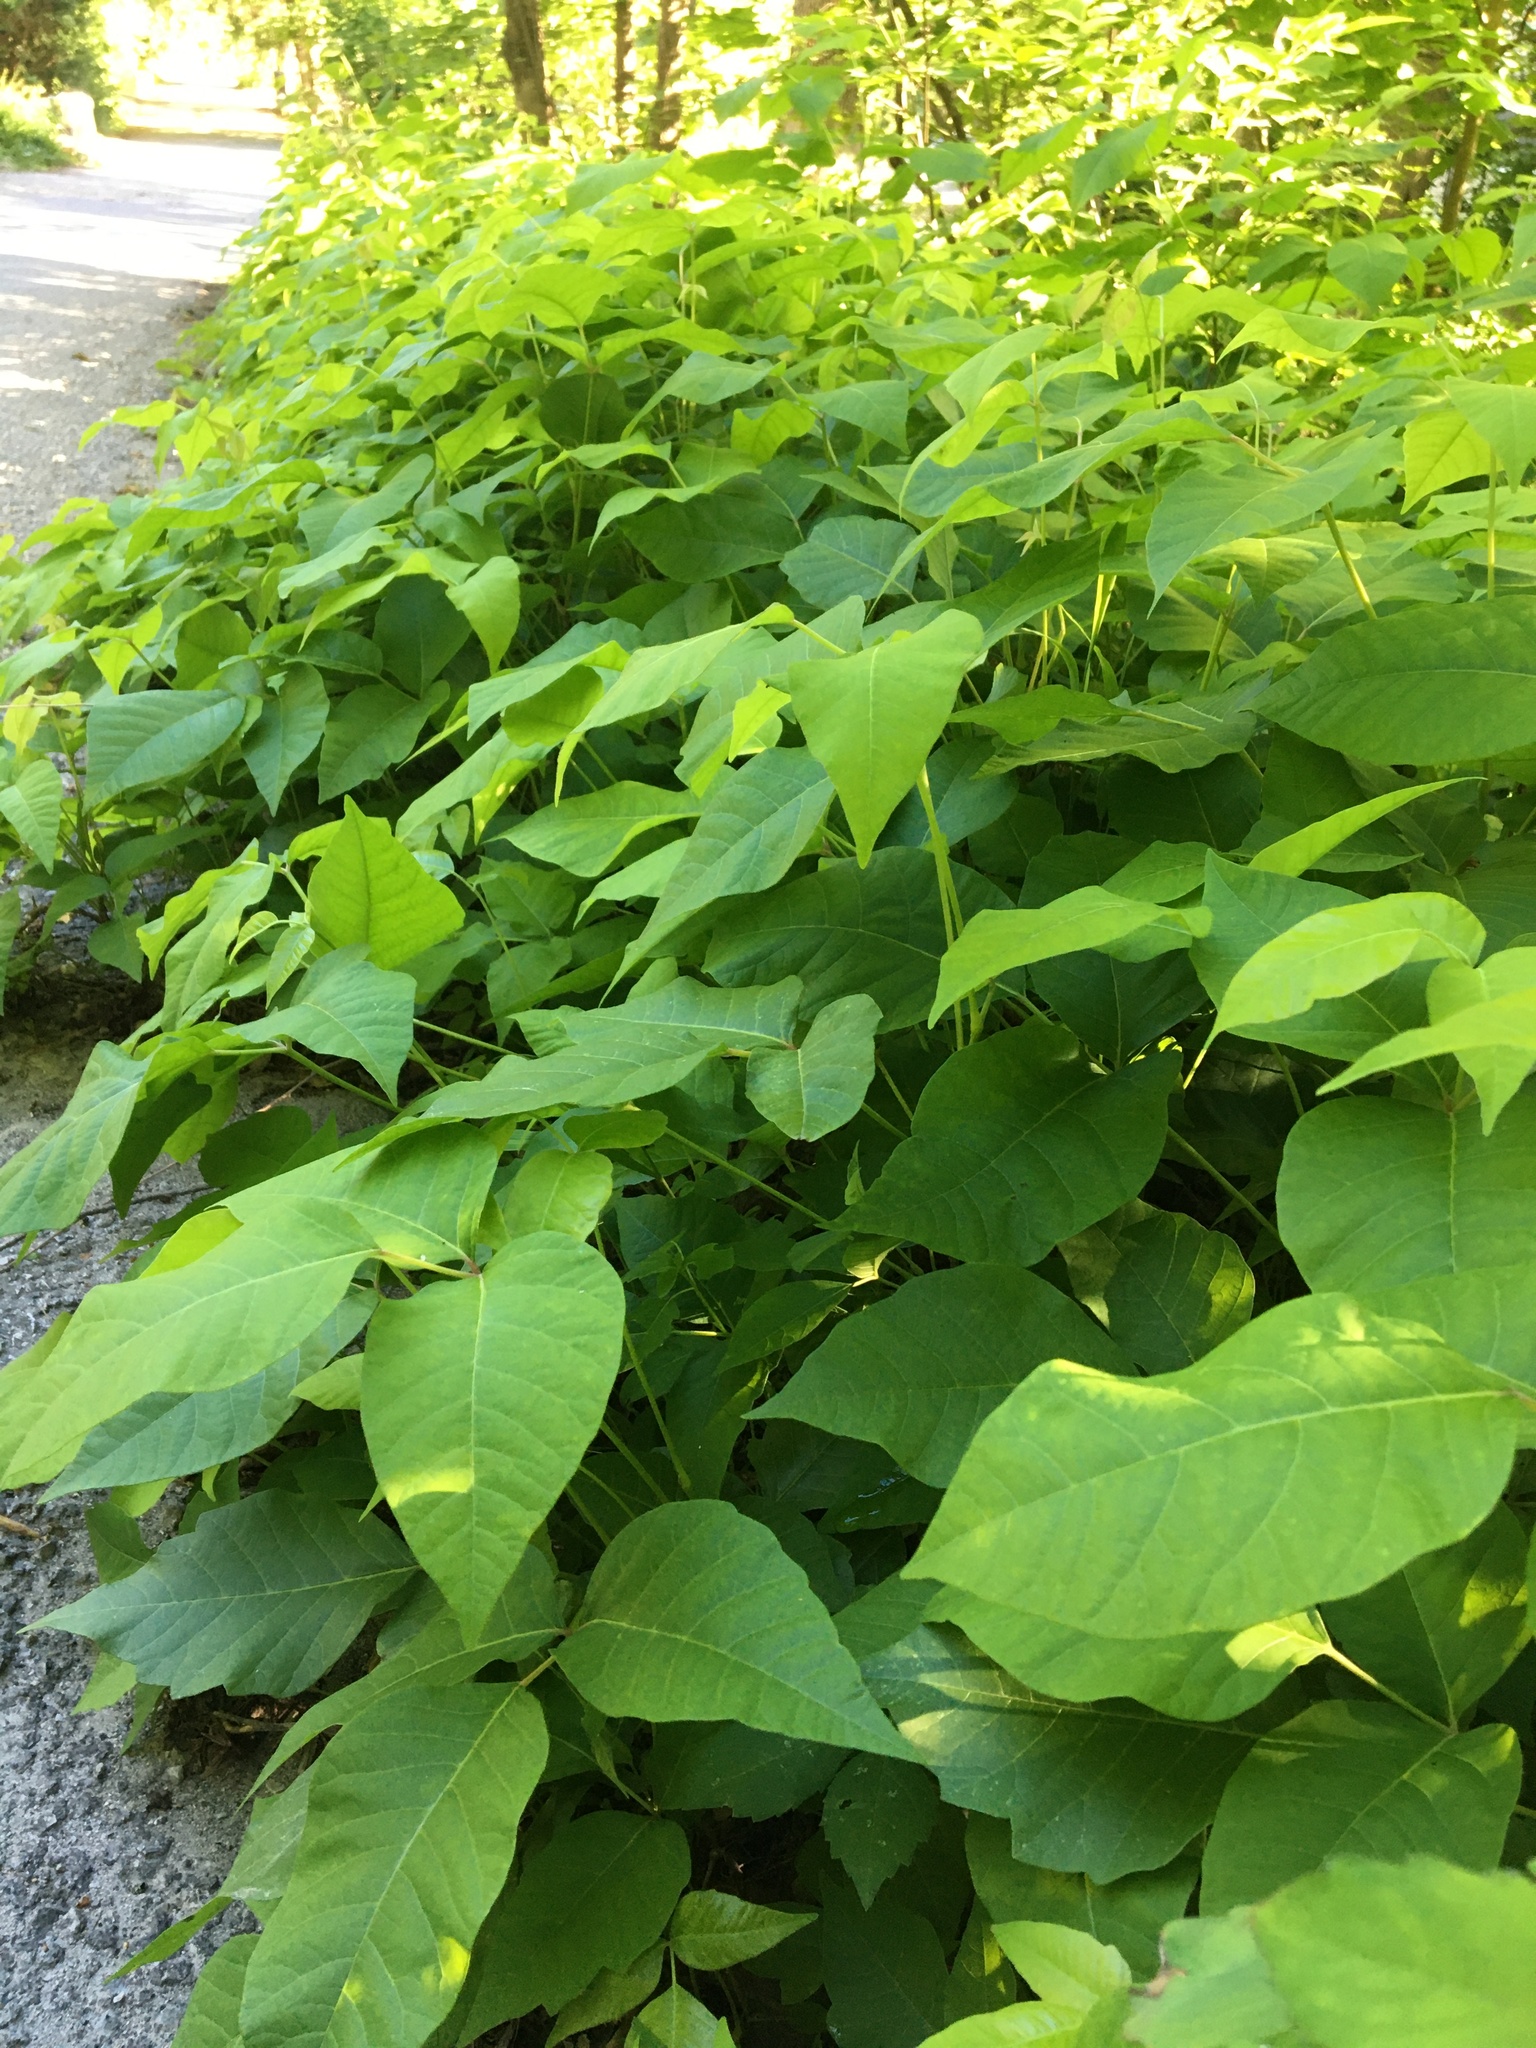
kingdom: Plantae
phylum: Tracheophyta
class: Magnoliopsida
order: Sapindales
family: Anacardiaceae
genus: Toxicodendron
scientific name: Toxicodendron radicans
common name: Poison ivy
